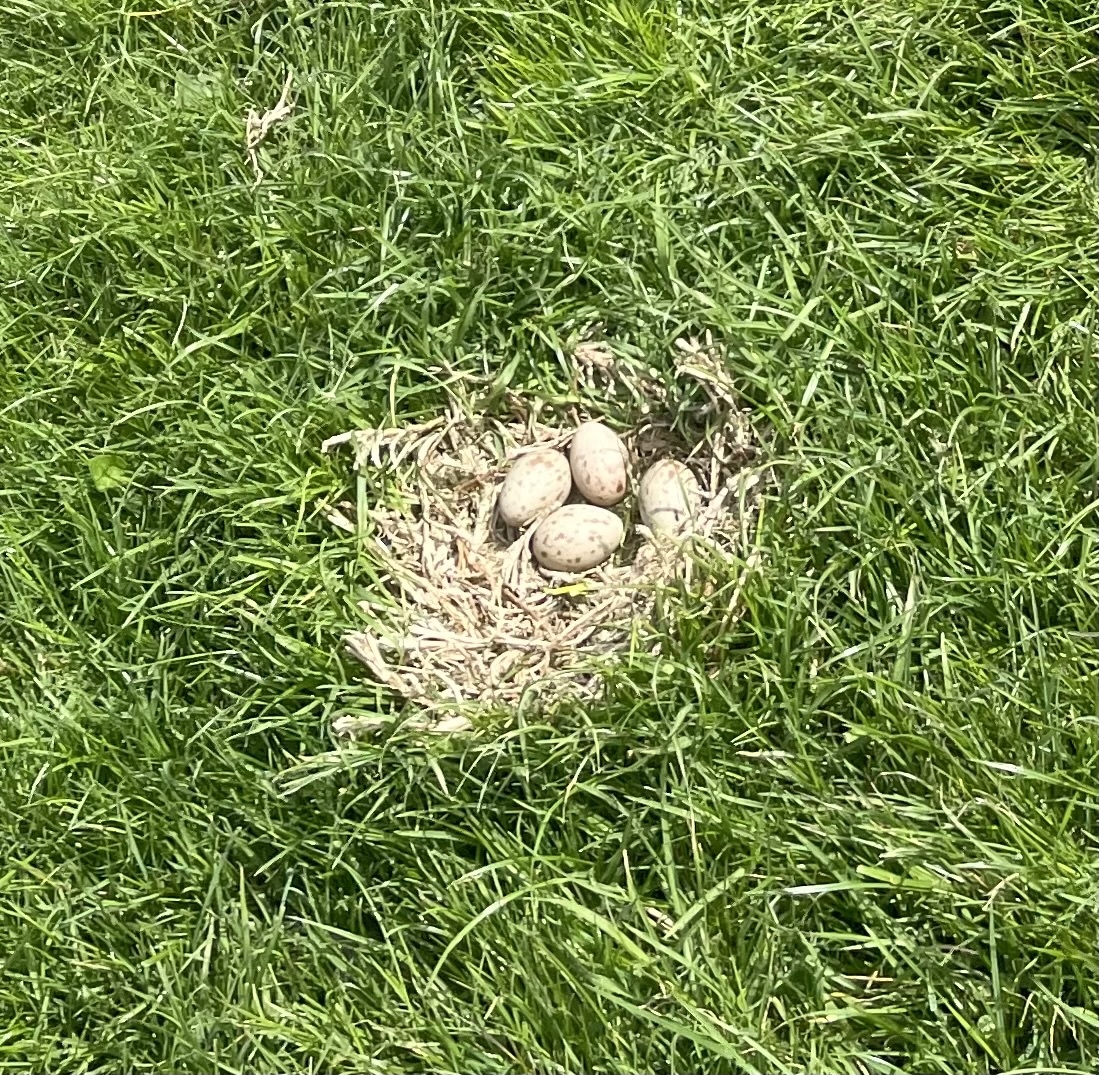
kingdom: Animalia
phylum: Chordata
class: Aves
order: Gruiformes
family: Rallidae
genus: Porphyrio
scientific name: Porphyrio melanotus
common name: Australasian swamphen
